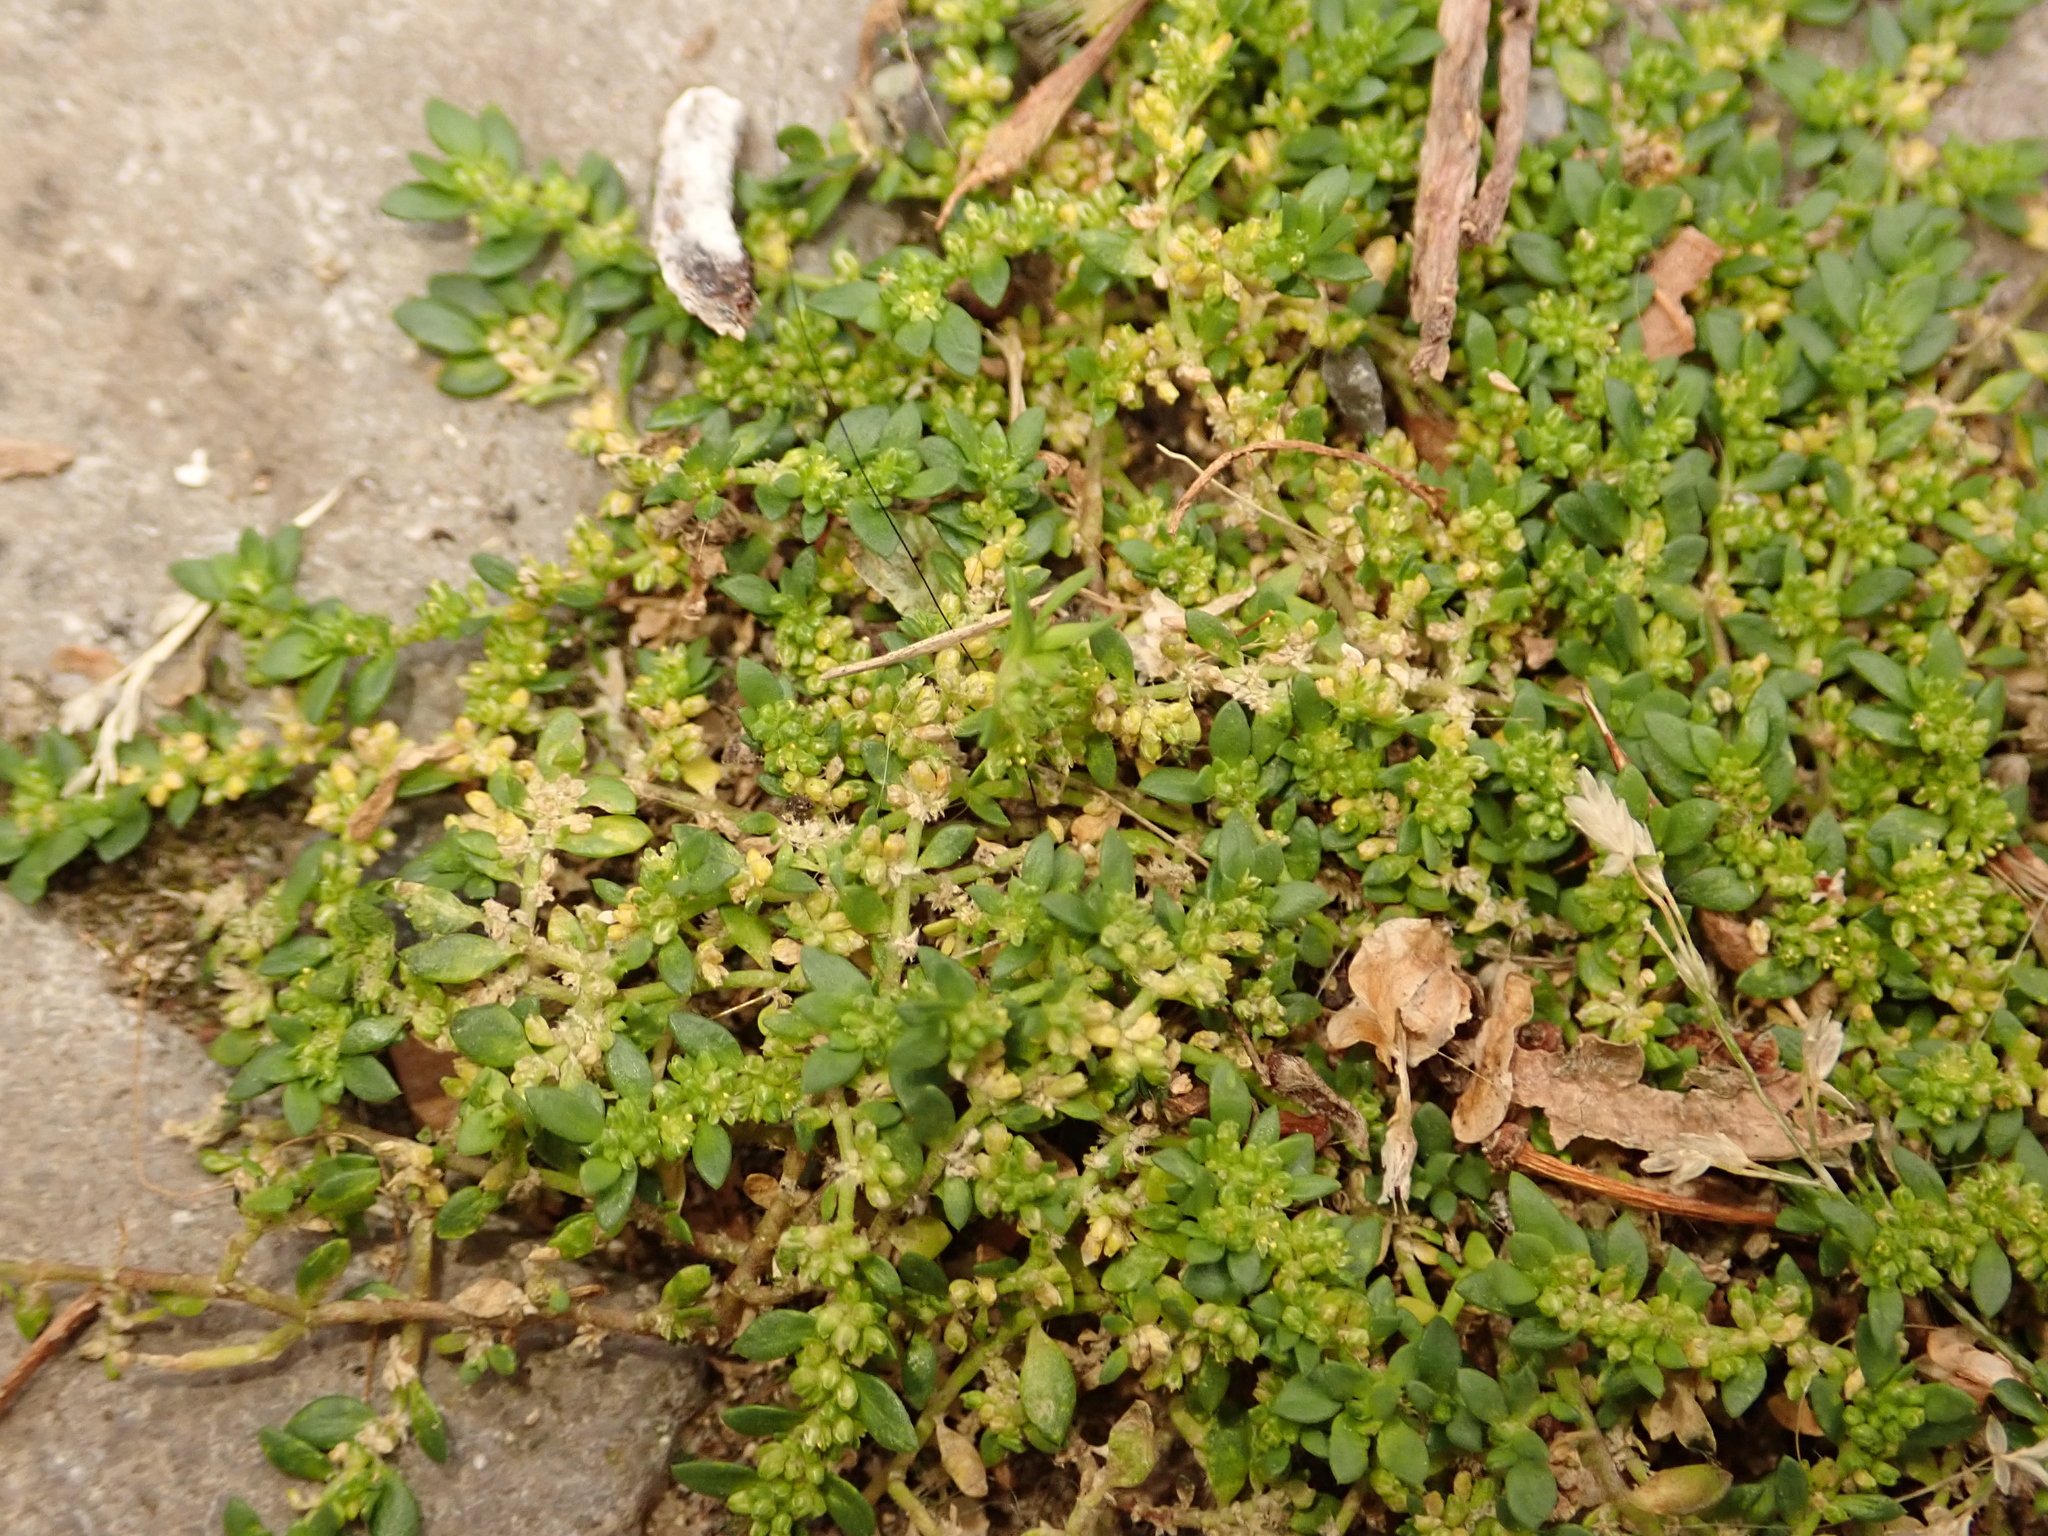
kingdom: Plantae
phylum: Tracheophyta
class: Magnoliopsida
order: Caryophyllales
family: Caryophyllaceae
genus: Herniaria
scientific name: Herniaria glabra
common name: Smooth rupturewort
